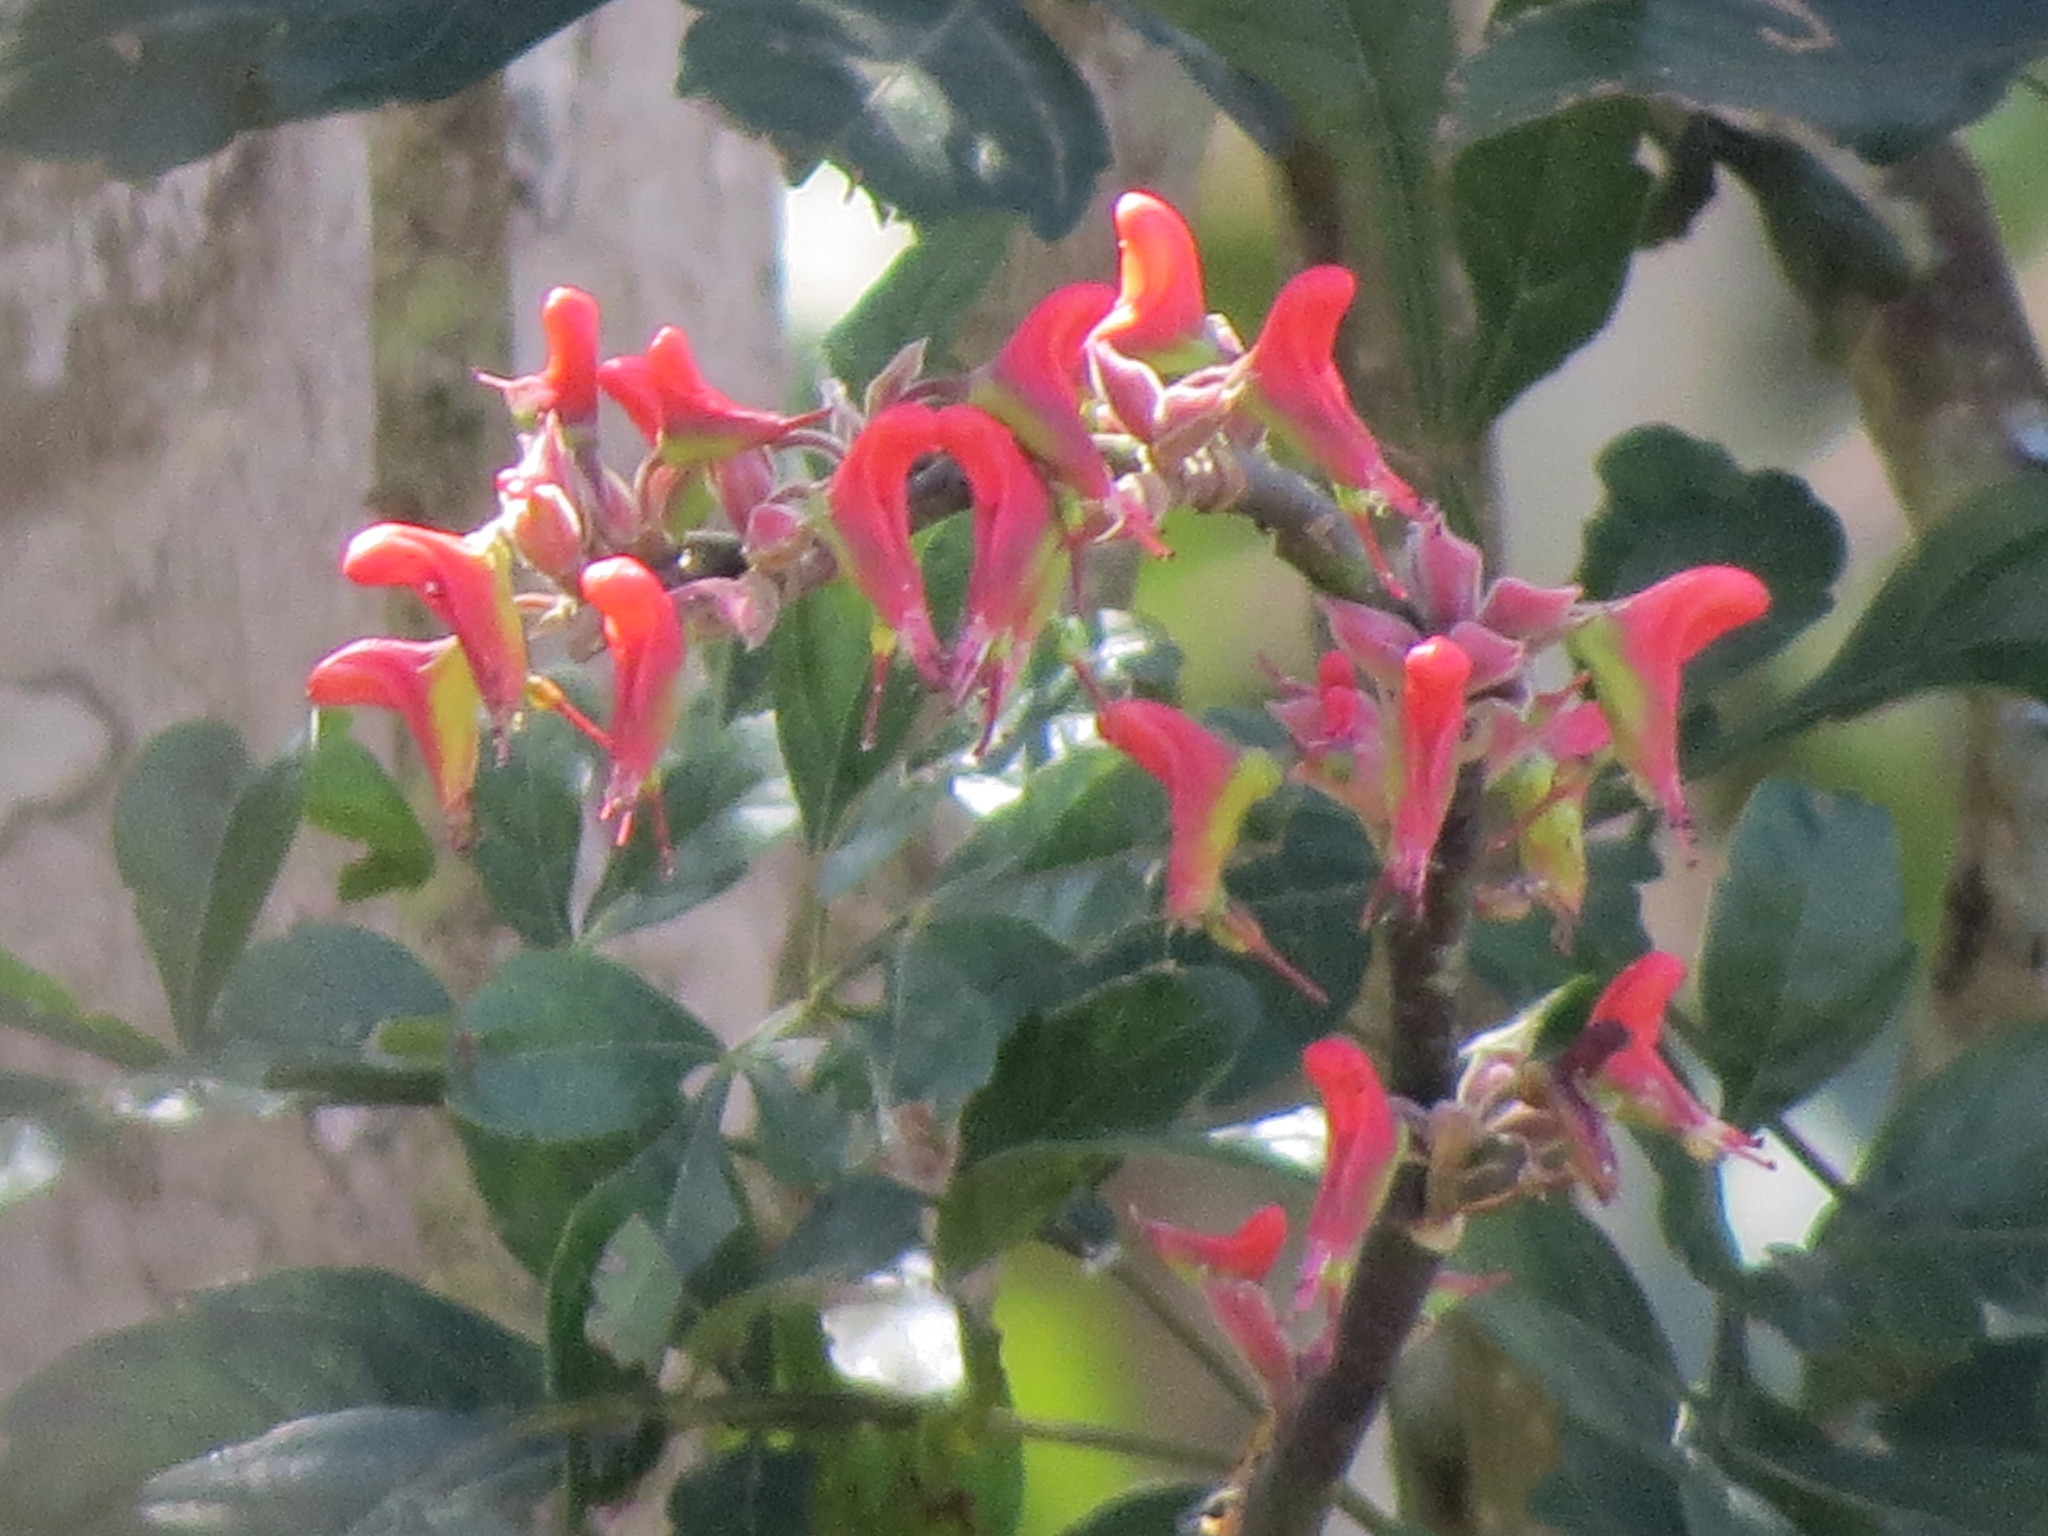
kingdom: Plantae
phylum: Tracheophyta
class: Magnoliopsida
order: Malpighiales
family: Euphorbiaceae
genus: Euphorbia
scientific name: Euphorbia calcarata
